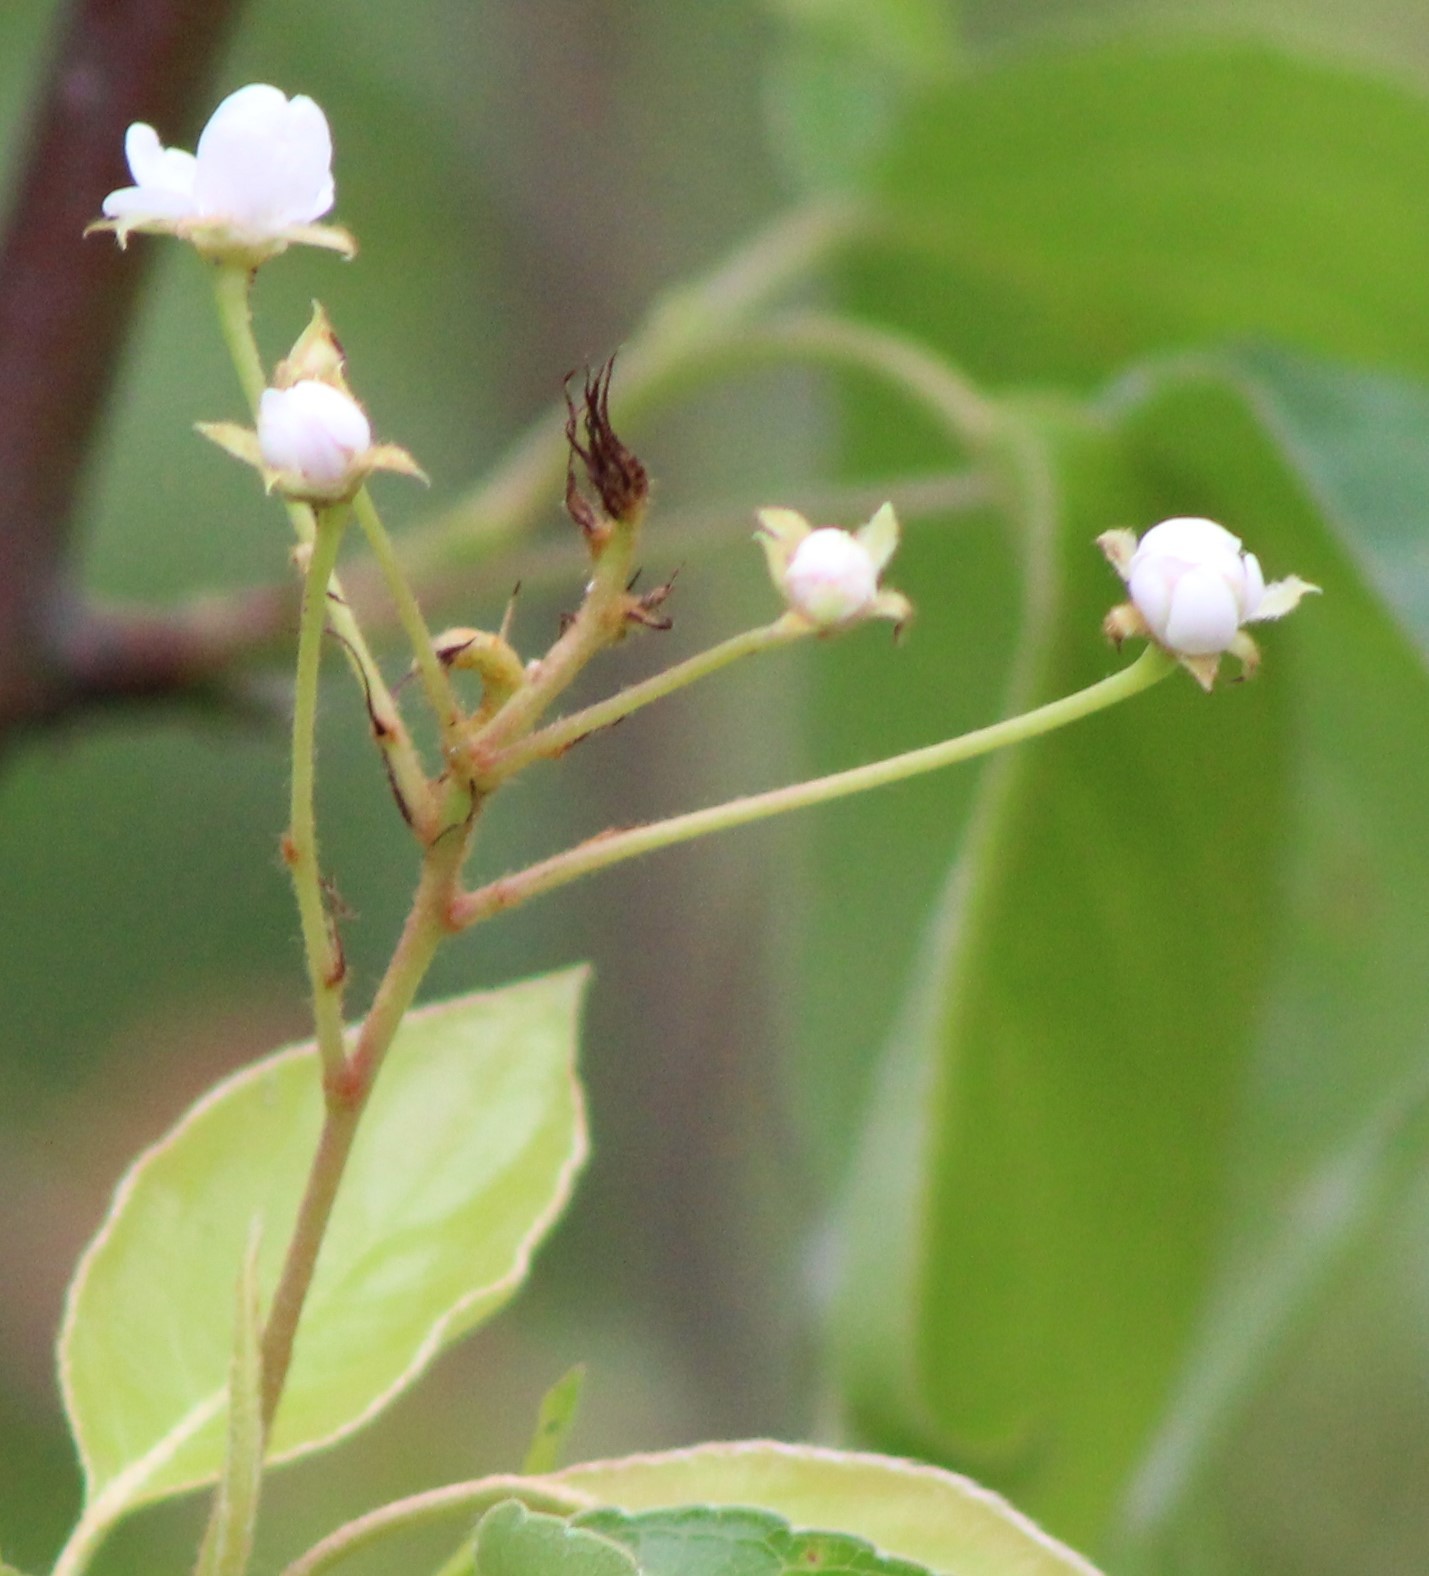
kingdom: Plantae
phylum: Tracheophyta
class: Magnoliopsida
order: Rosales
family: Rosaceae
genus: Pyrus
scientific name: Pyrus calleryana
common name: Callery pear
